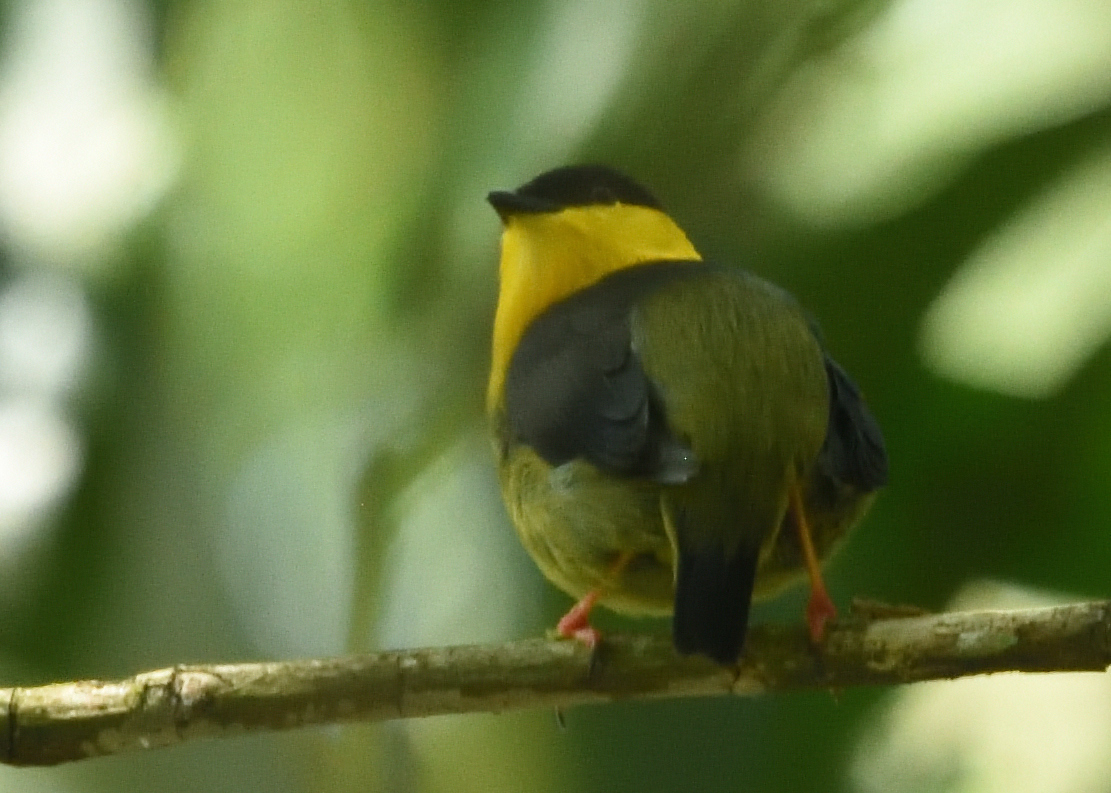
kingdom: Animalia
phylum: Chordata
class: Aves
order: Passeriformes
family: Pipridae
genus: Manacus
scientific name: Manacus vitellinus
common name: Golden-collared manakin
